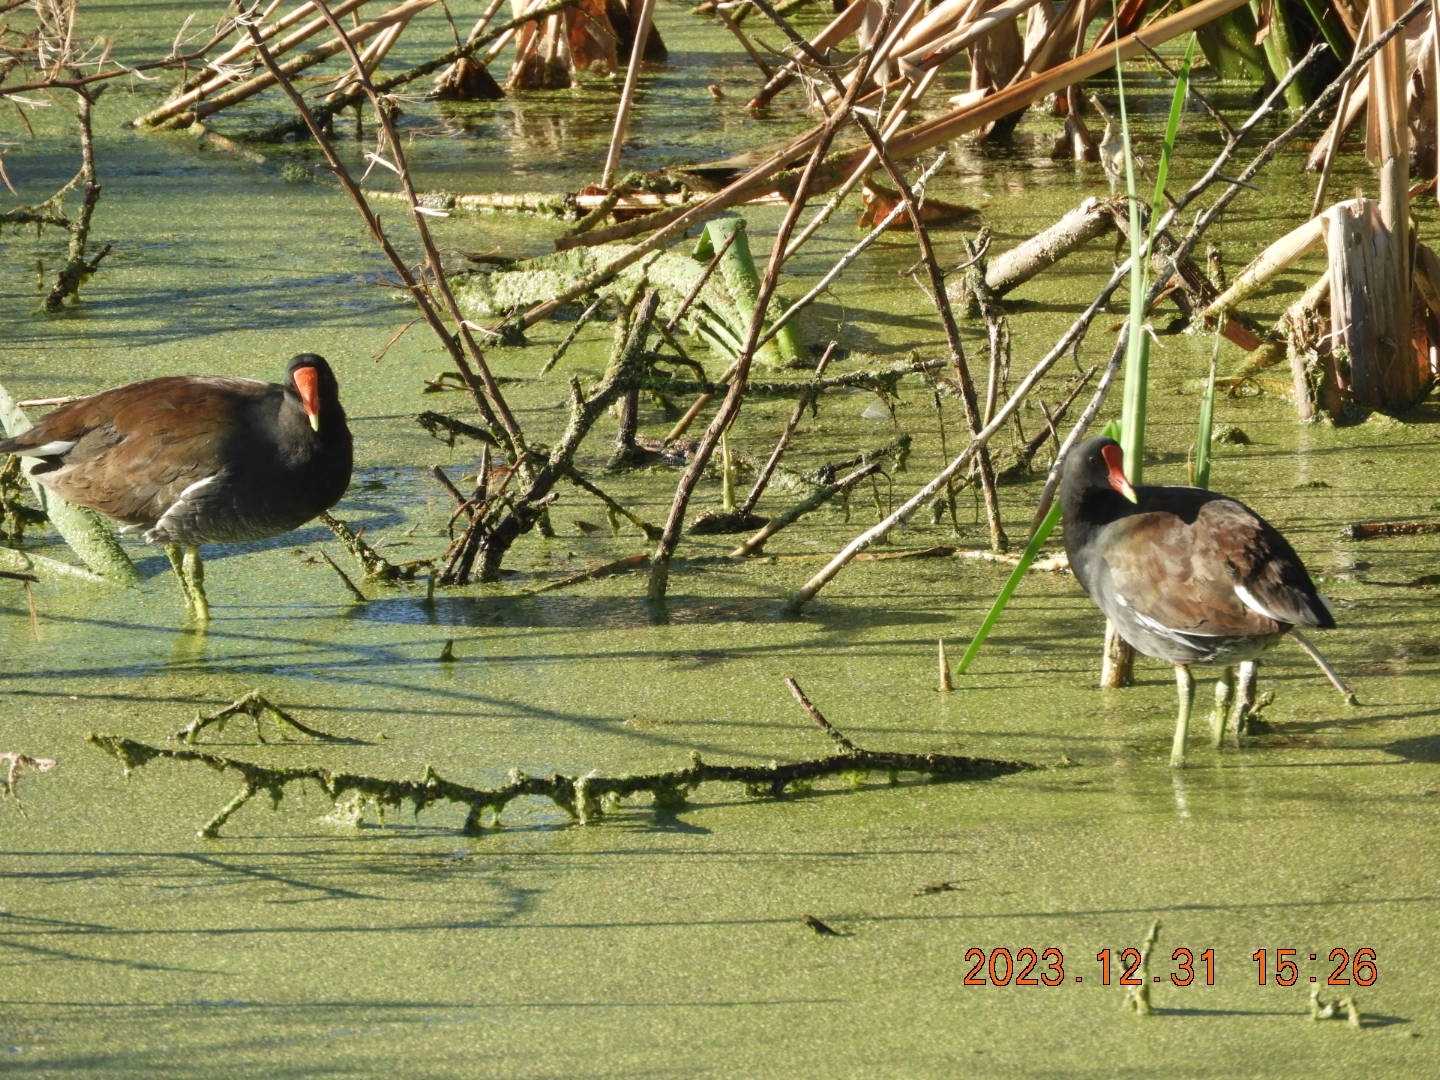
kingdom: Animalia
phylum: Chordata
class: Aves
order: Gruiformes
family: Rallidae
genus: Gallinula
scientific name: Gallinula chloropus
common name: Common moorhen
